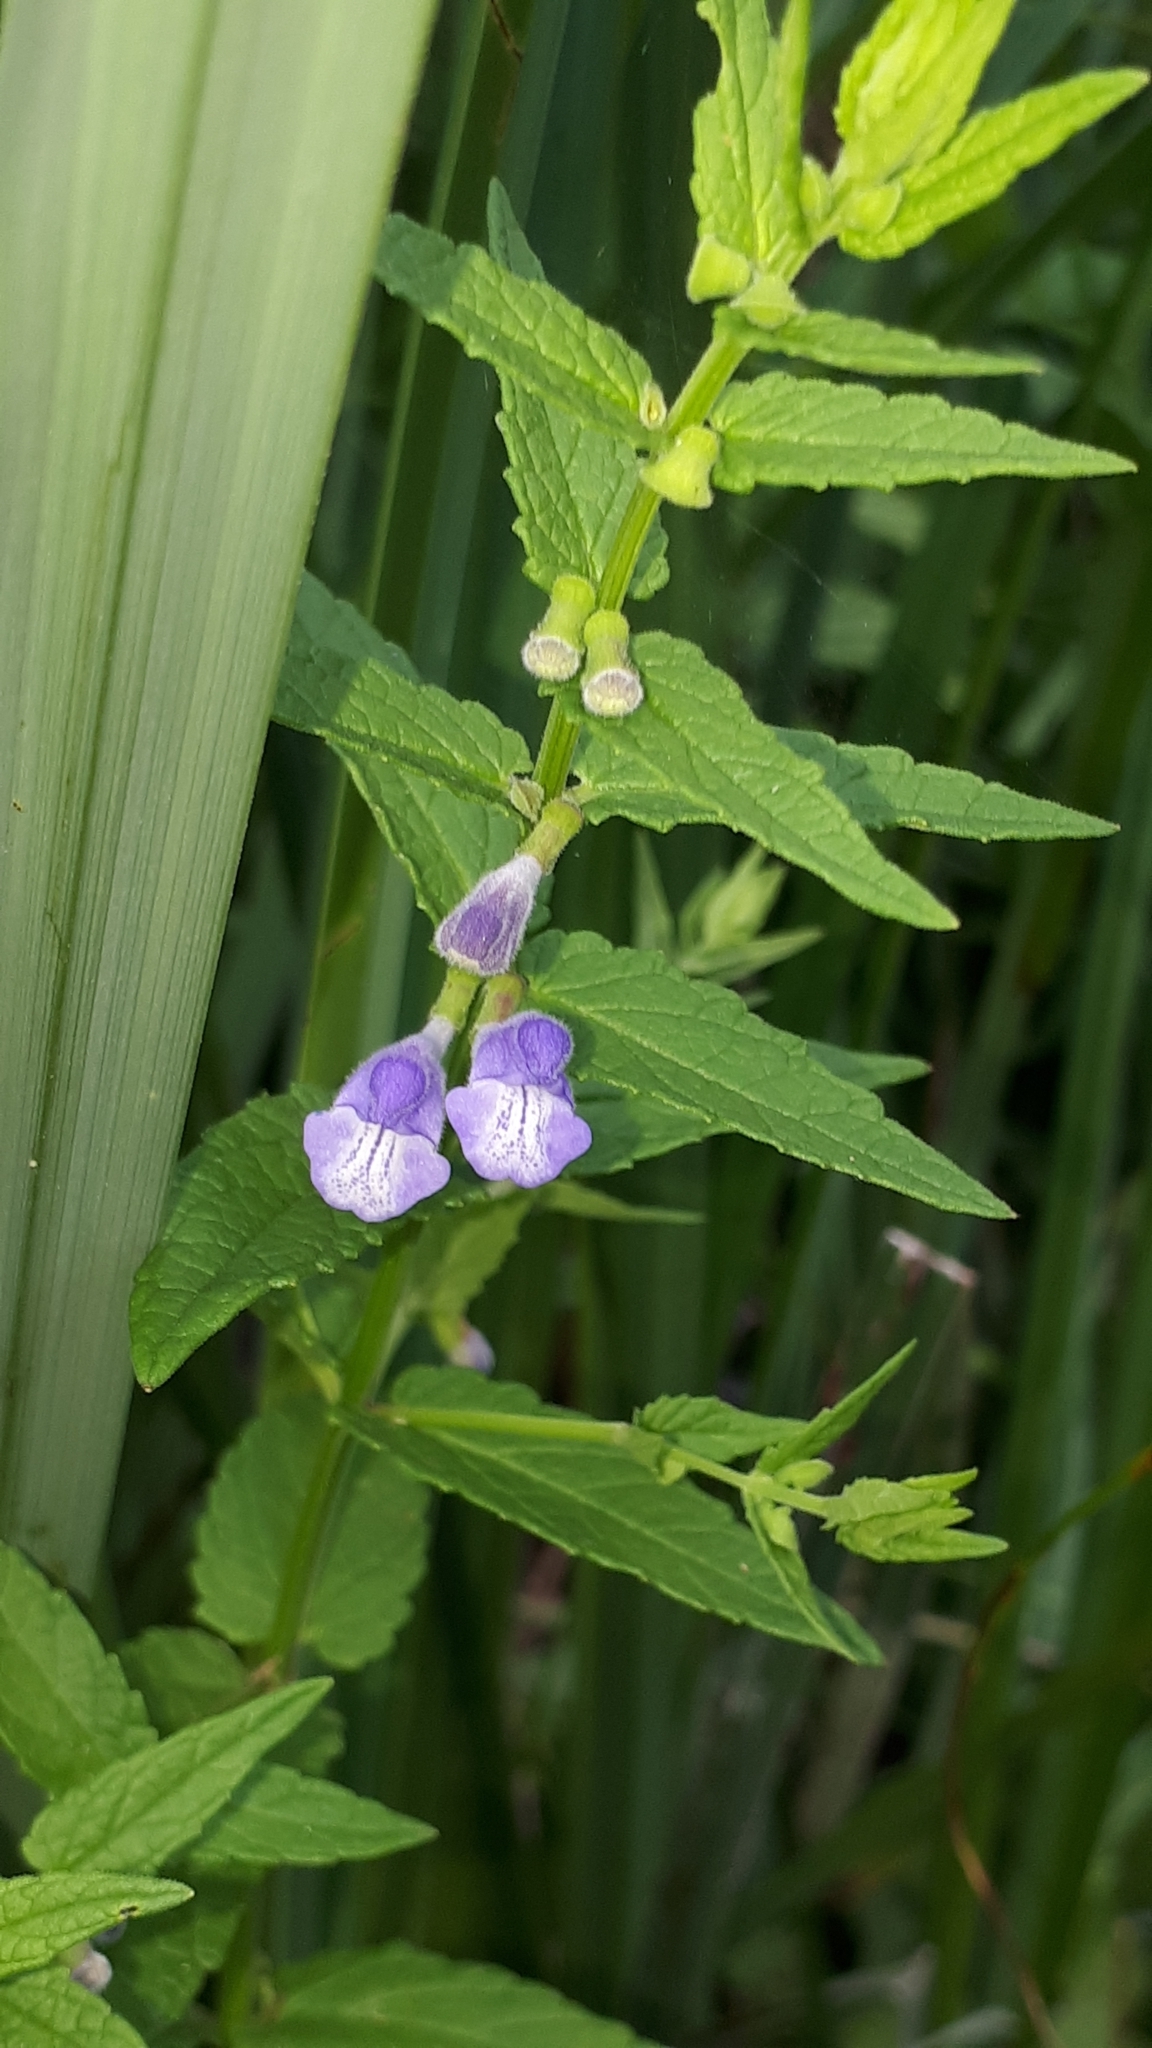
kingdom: Plantae
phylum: Tracheophyta
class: Magnoliopsida
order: Lamiales
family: Lamiaceae
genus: Scutellaria
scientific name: Scutellaria galericulata
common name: Skullcap
